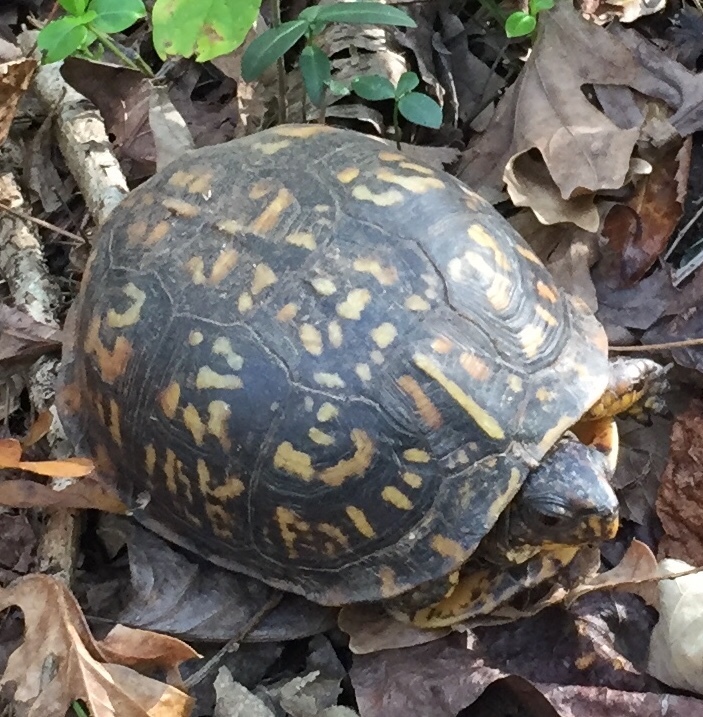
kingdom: Animalia
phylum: Chordata
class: Testudines
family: Emydidae
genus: Terrapene
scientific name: Terrapene carolina
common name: Common box turtle
